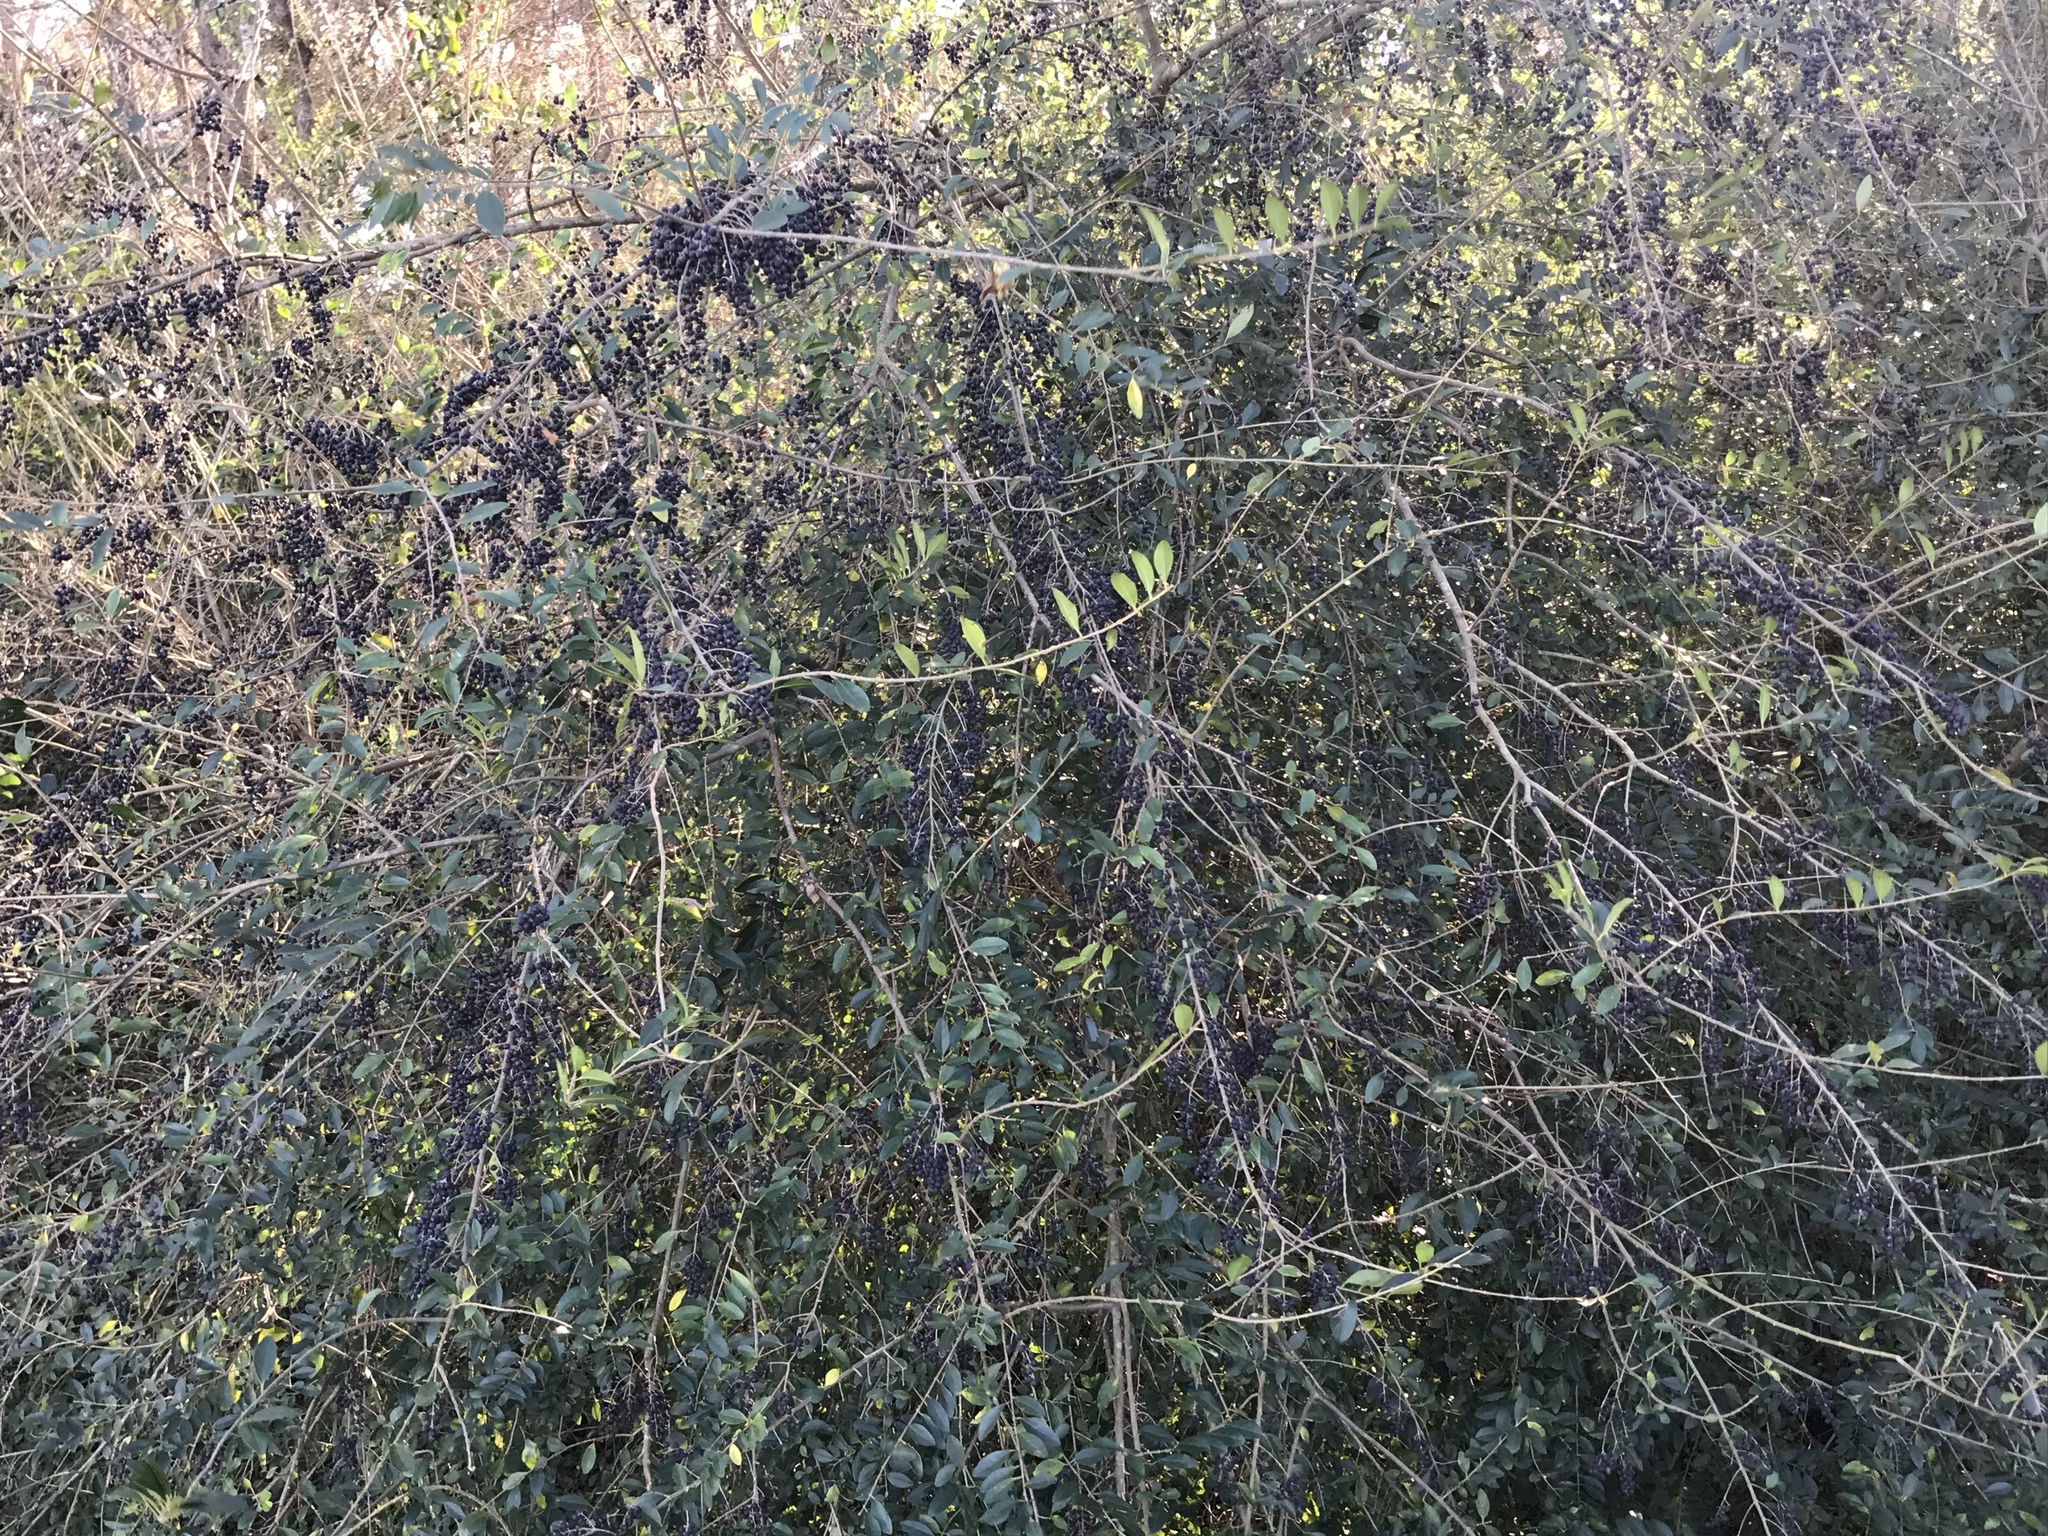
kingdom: Plantae
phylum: Tracheophyta
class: Magnoliopsida
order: Lamiales
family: Oleaceae
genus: Ligustrum
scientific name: Ligustrum sinense
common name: Chinese privet
